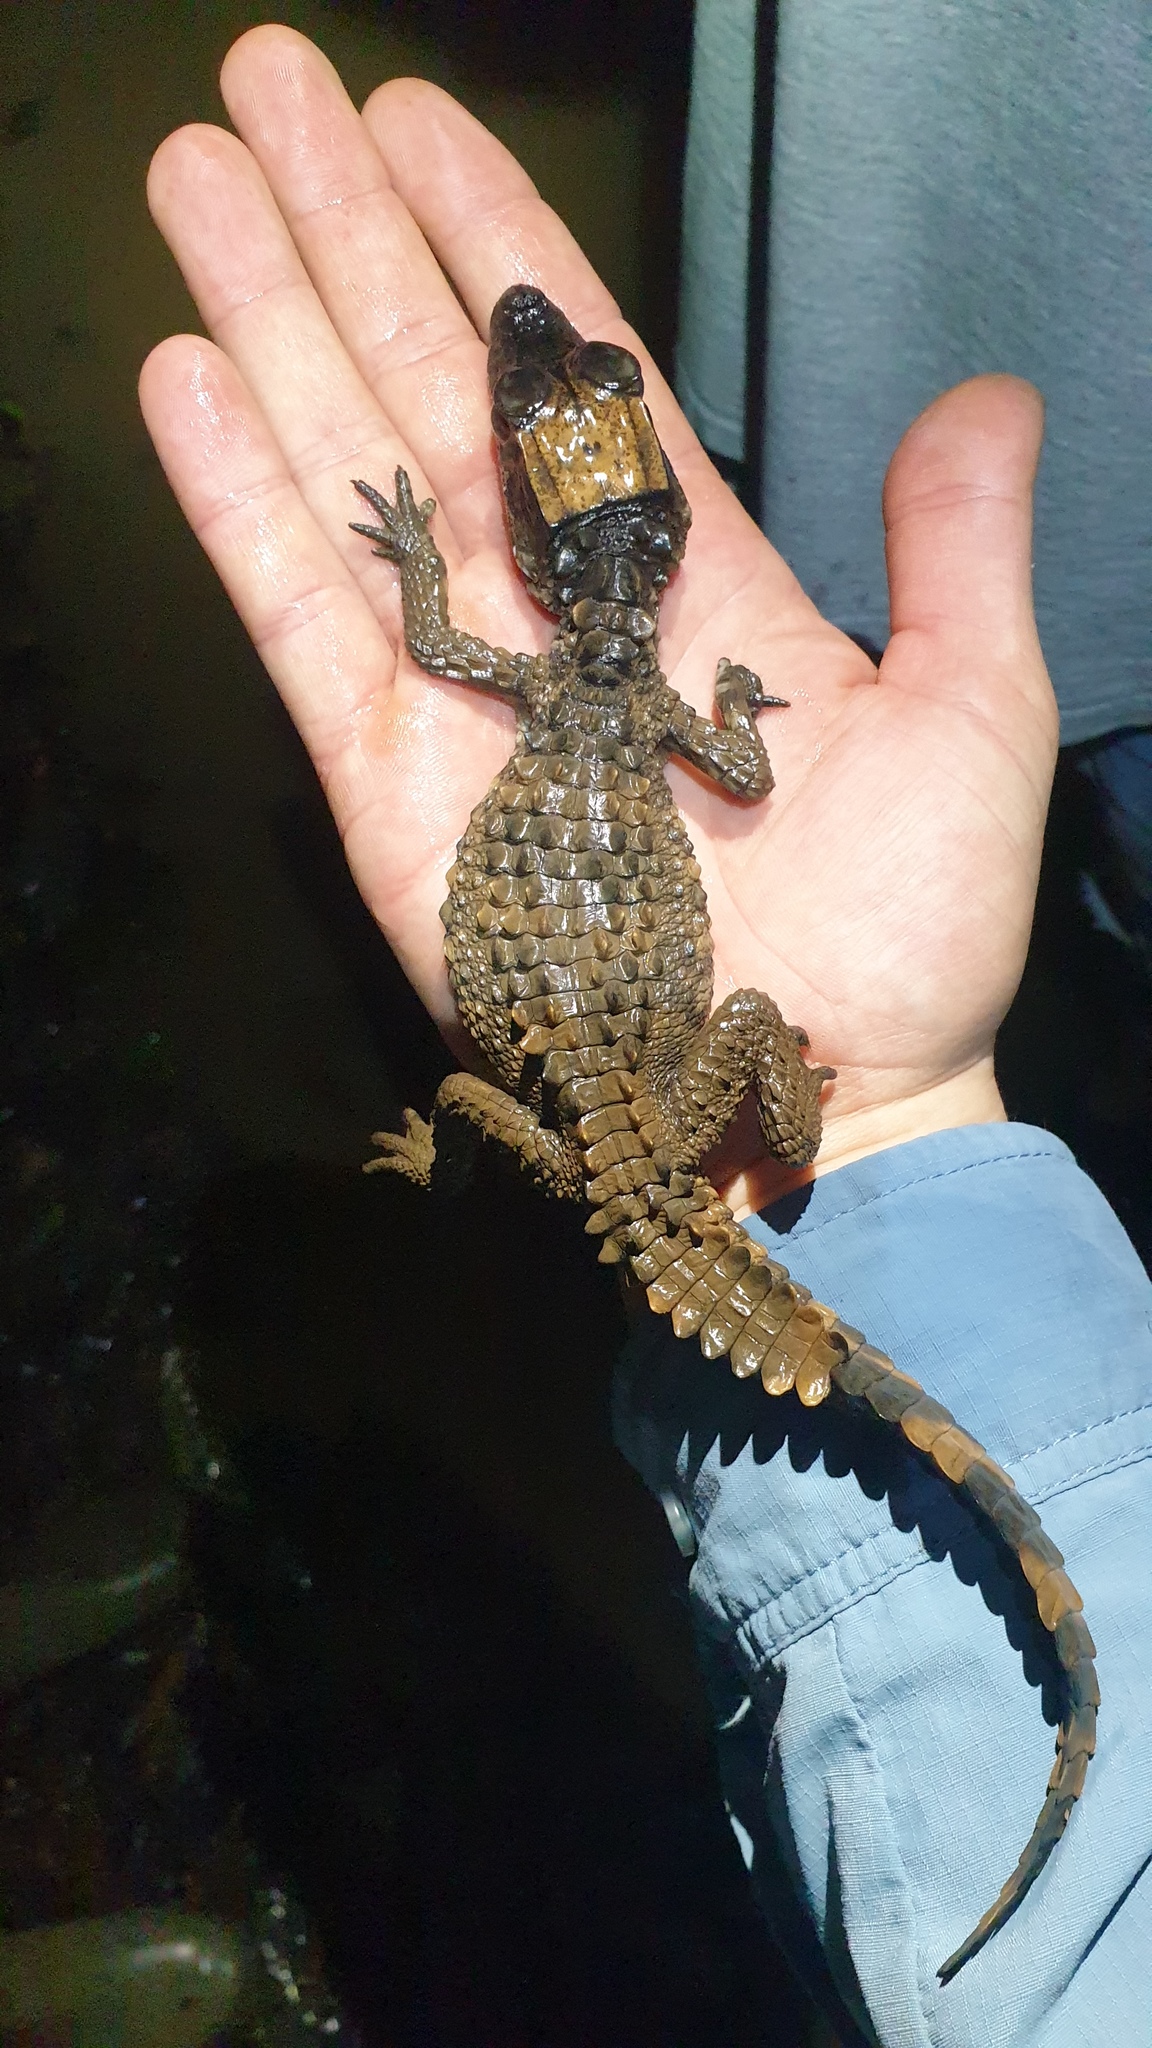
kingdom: Animalia
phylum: Chordata
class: Crocodylia
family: Alligatoridae
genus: Paleosuchus
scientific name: Paleosuchus trigonatus
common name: Schneider's smooth-fronted caiman
